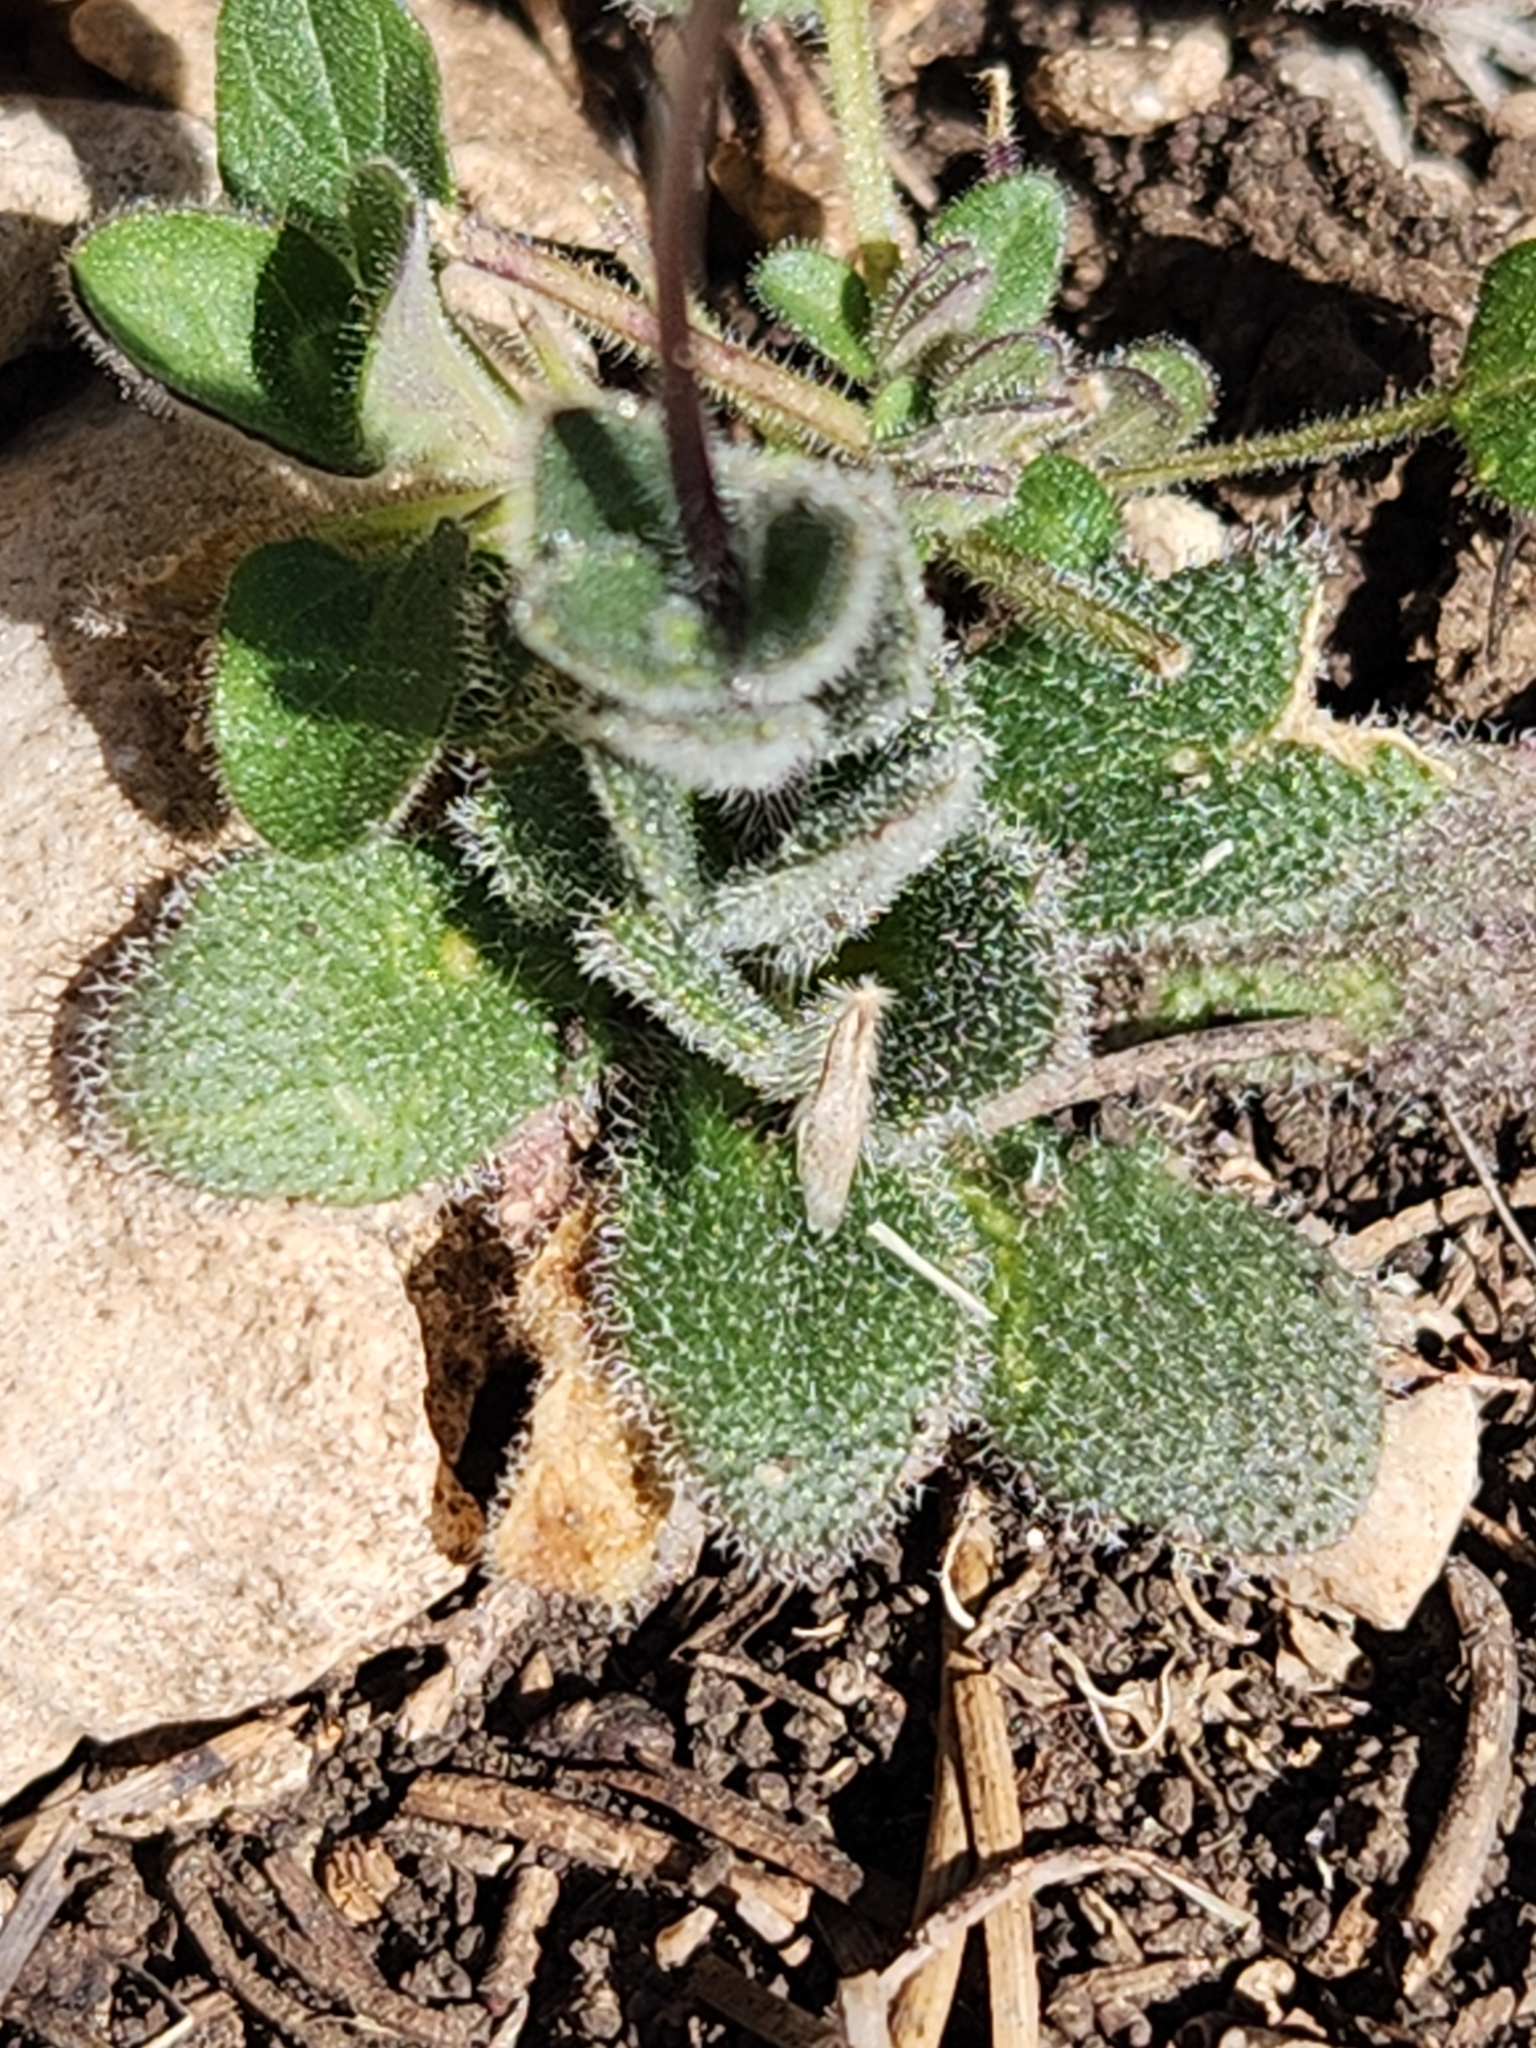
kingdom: Plantae
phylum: Tracheophyta
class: Magnoliopsida
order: Brassicales
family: Brassicaceae
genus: Tomostima
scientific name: Tomostima reptans
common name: Carolina draba
